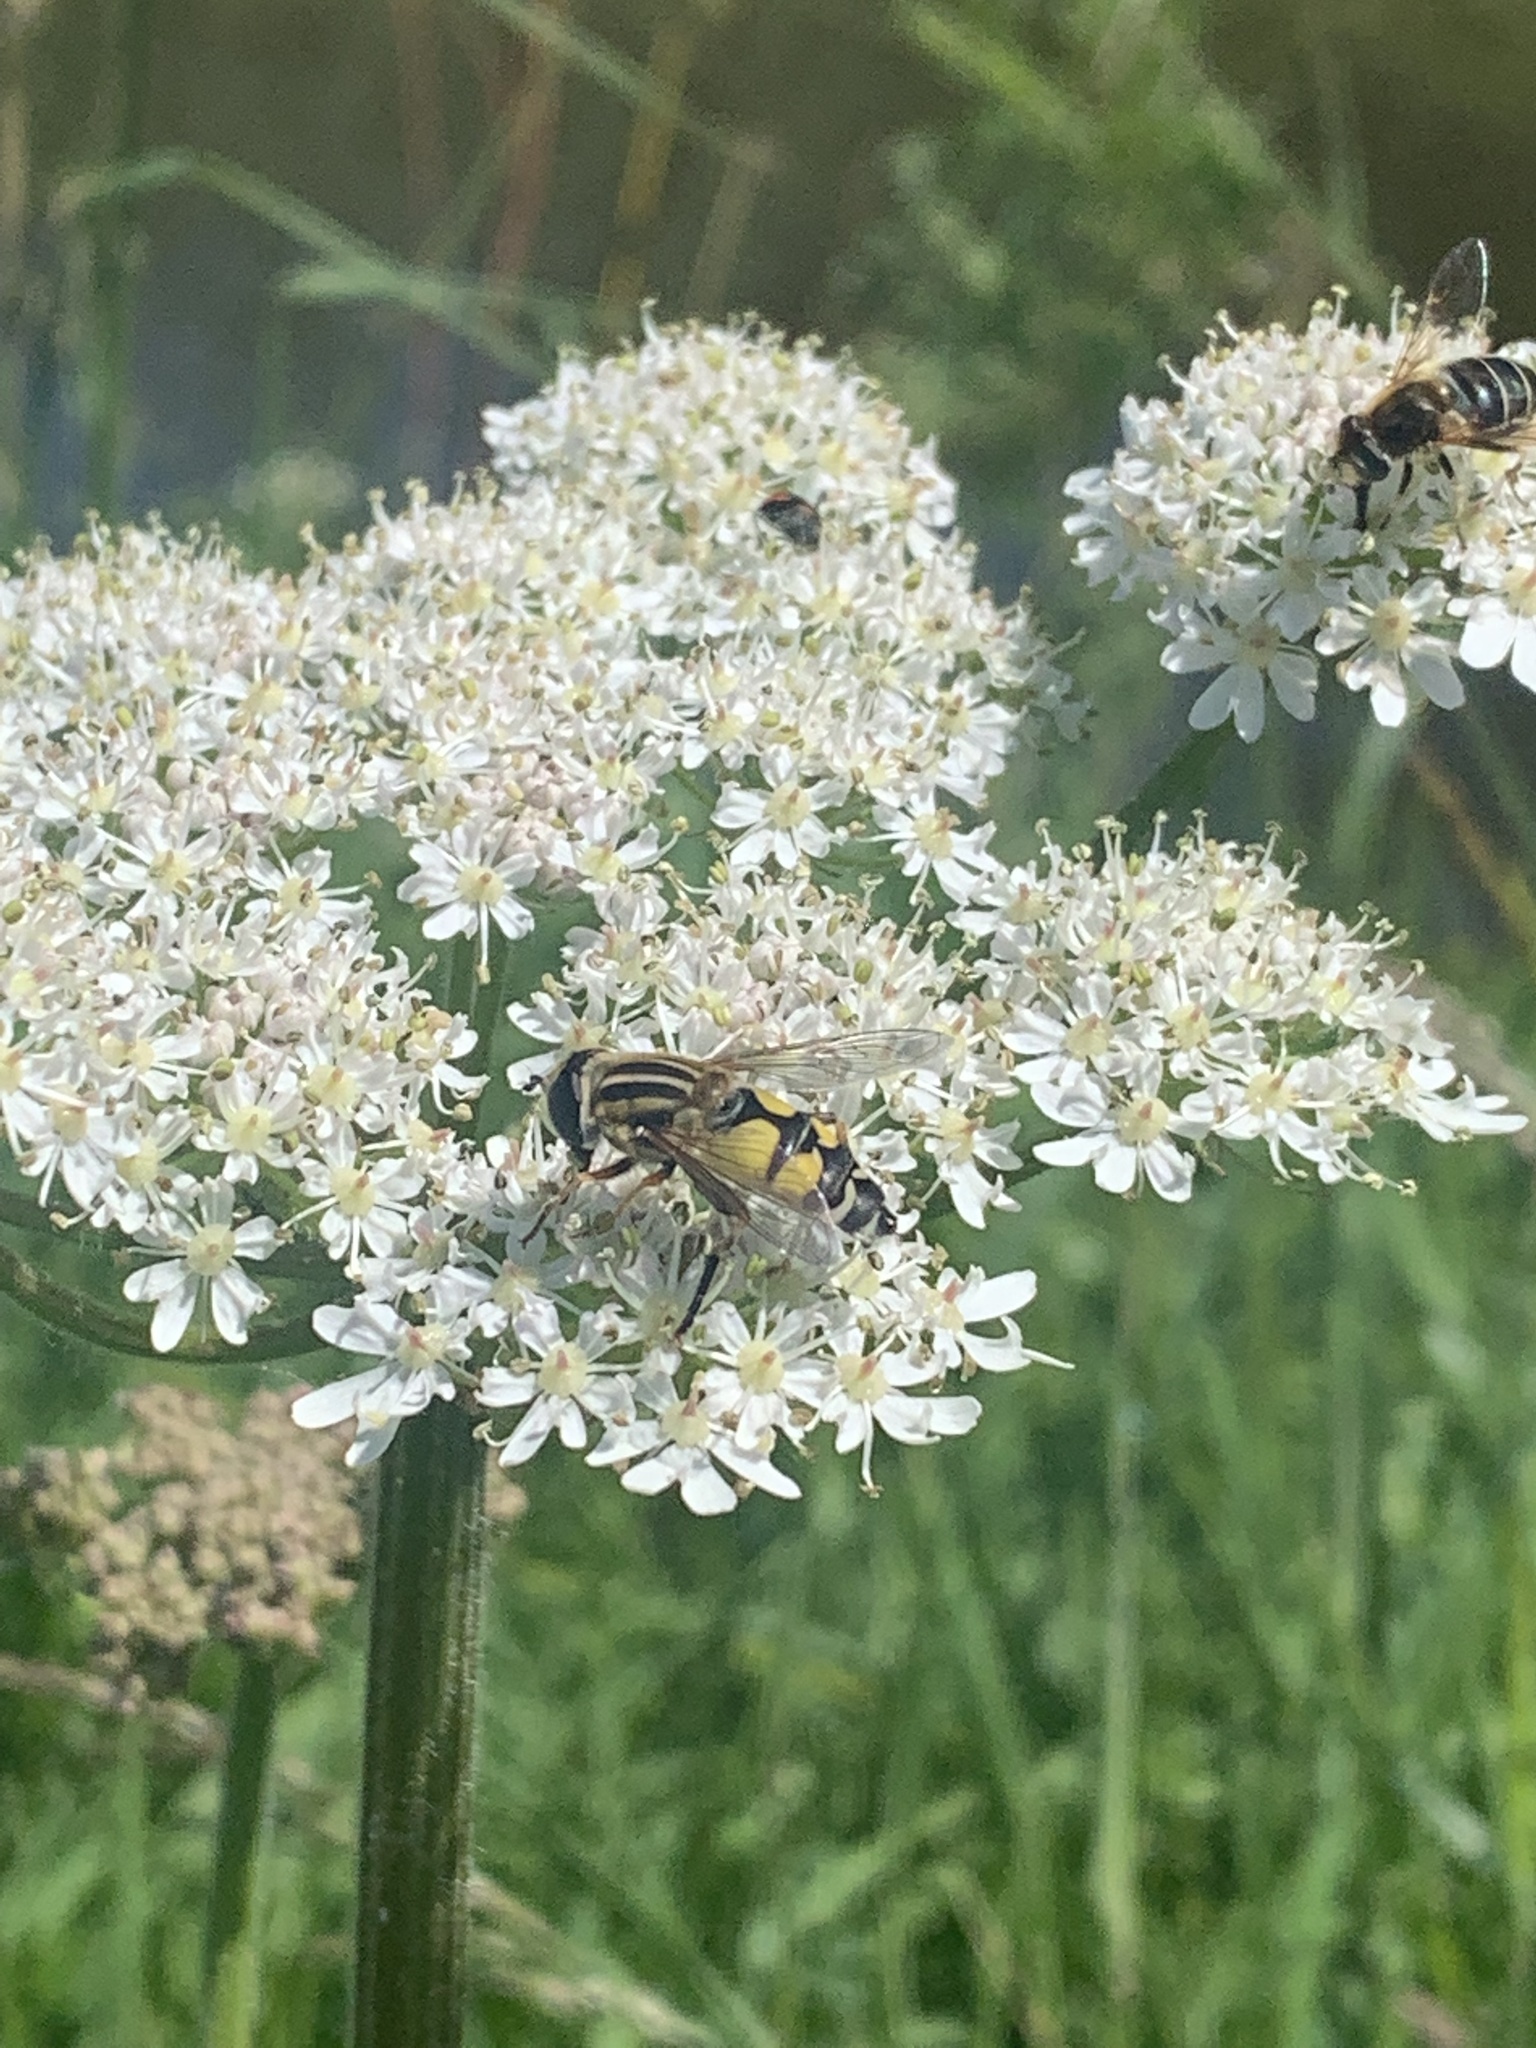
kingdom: Animalia
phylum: Arthropoda
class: Insecta
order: Diptera
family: Syrphidae
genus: Helophilus
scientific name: Helophilus trivittatus
